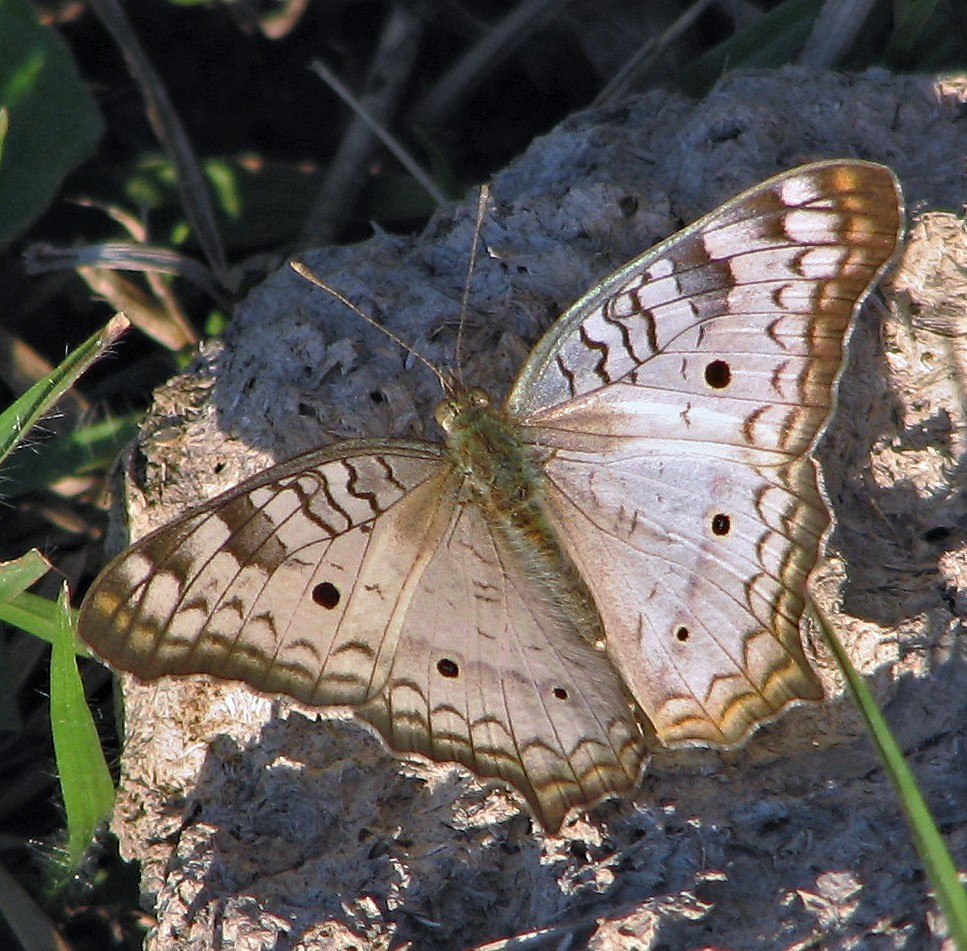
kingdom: Animalia
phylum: Arthropoda
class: Insecta
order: Lepidoptera
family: Nymphalidae
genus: Anartia
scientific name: Anartia jatrophae
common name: White peacock
